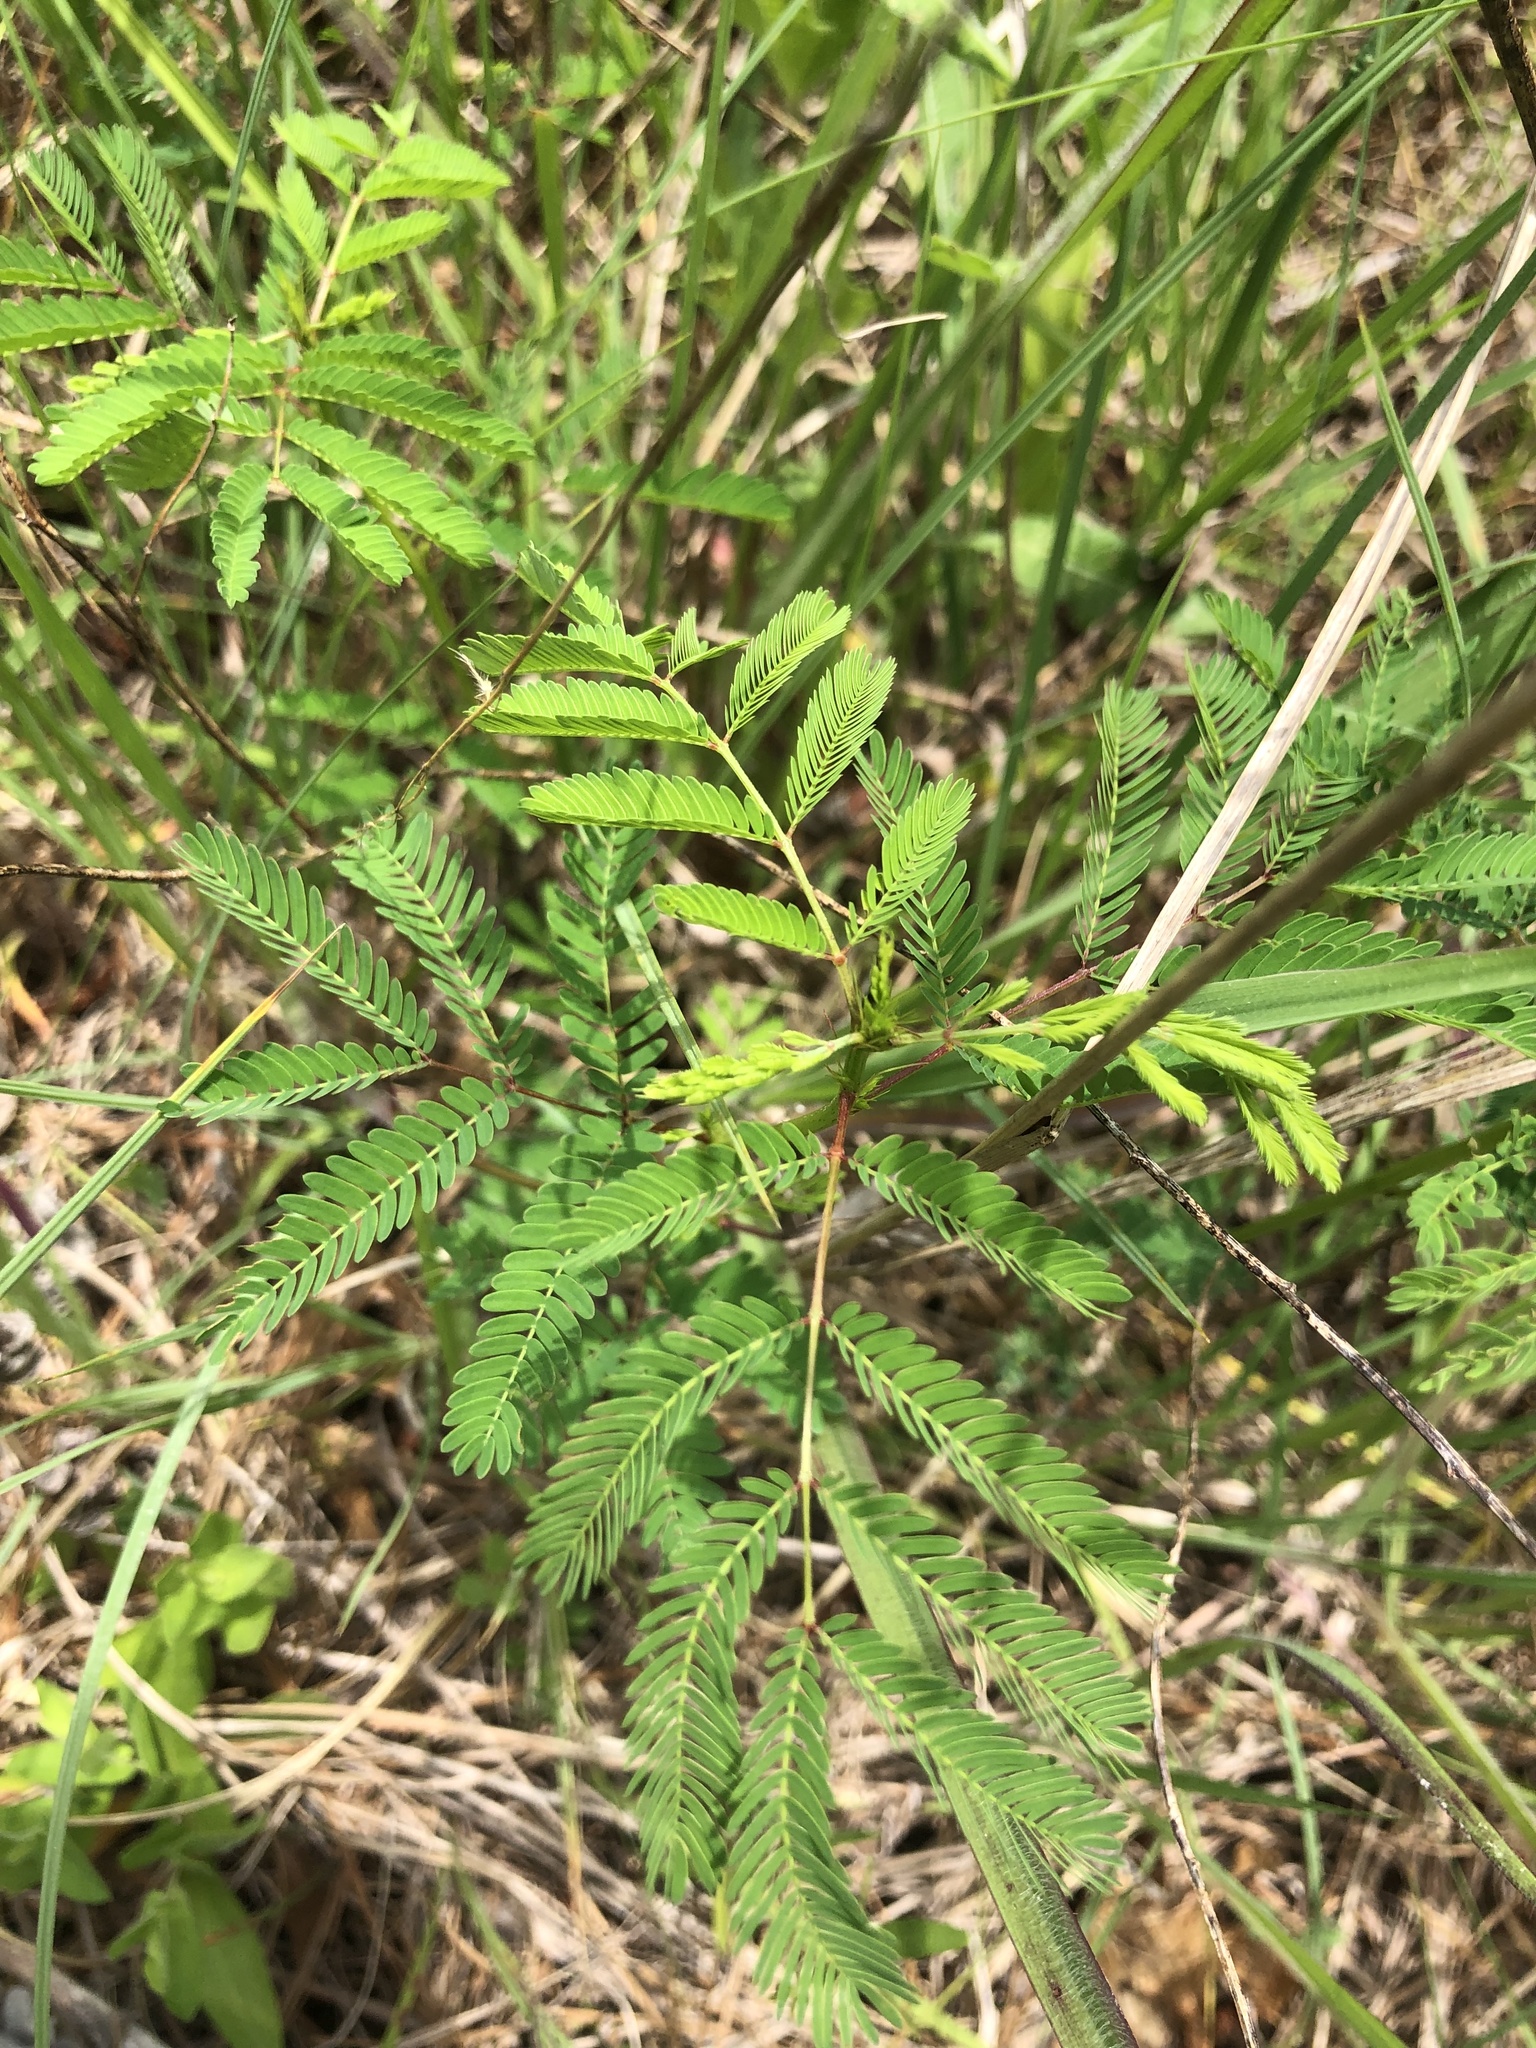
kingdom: Plantae
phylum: Tracheophyta
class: Magnoliopsida
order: Fabales
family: Fabaceae
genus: Desmanthus
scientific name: Desmanthus illinoensis
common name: Illinois bundle-flower
